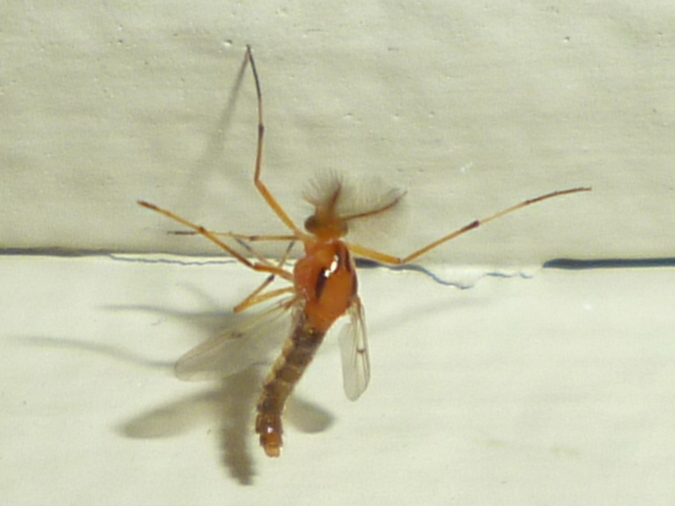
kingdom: Animalia
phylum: Arthropoda
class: Insecta
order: Diptera
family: Chironomidae
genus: Clinotanypus
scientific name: Clinotanypus planus
